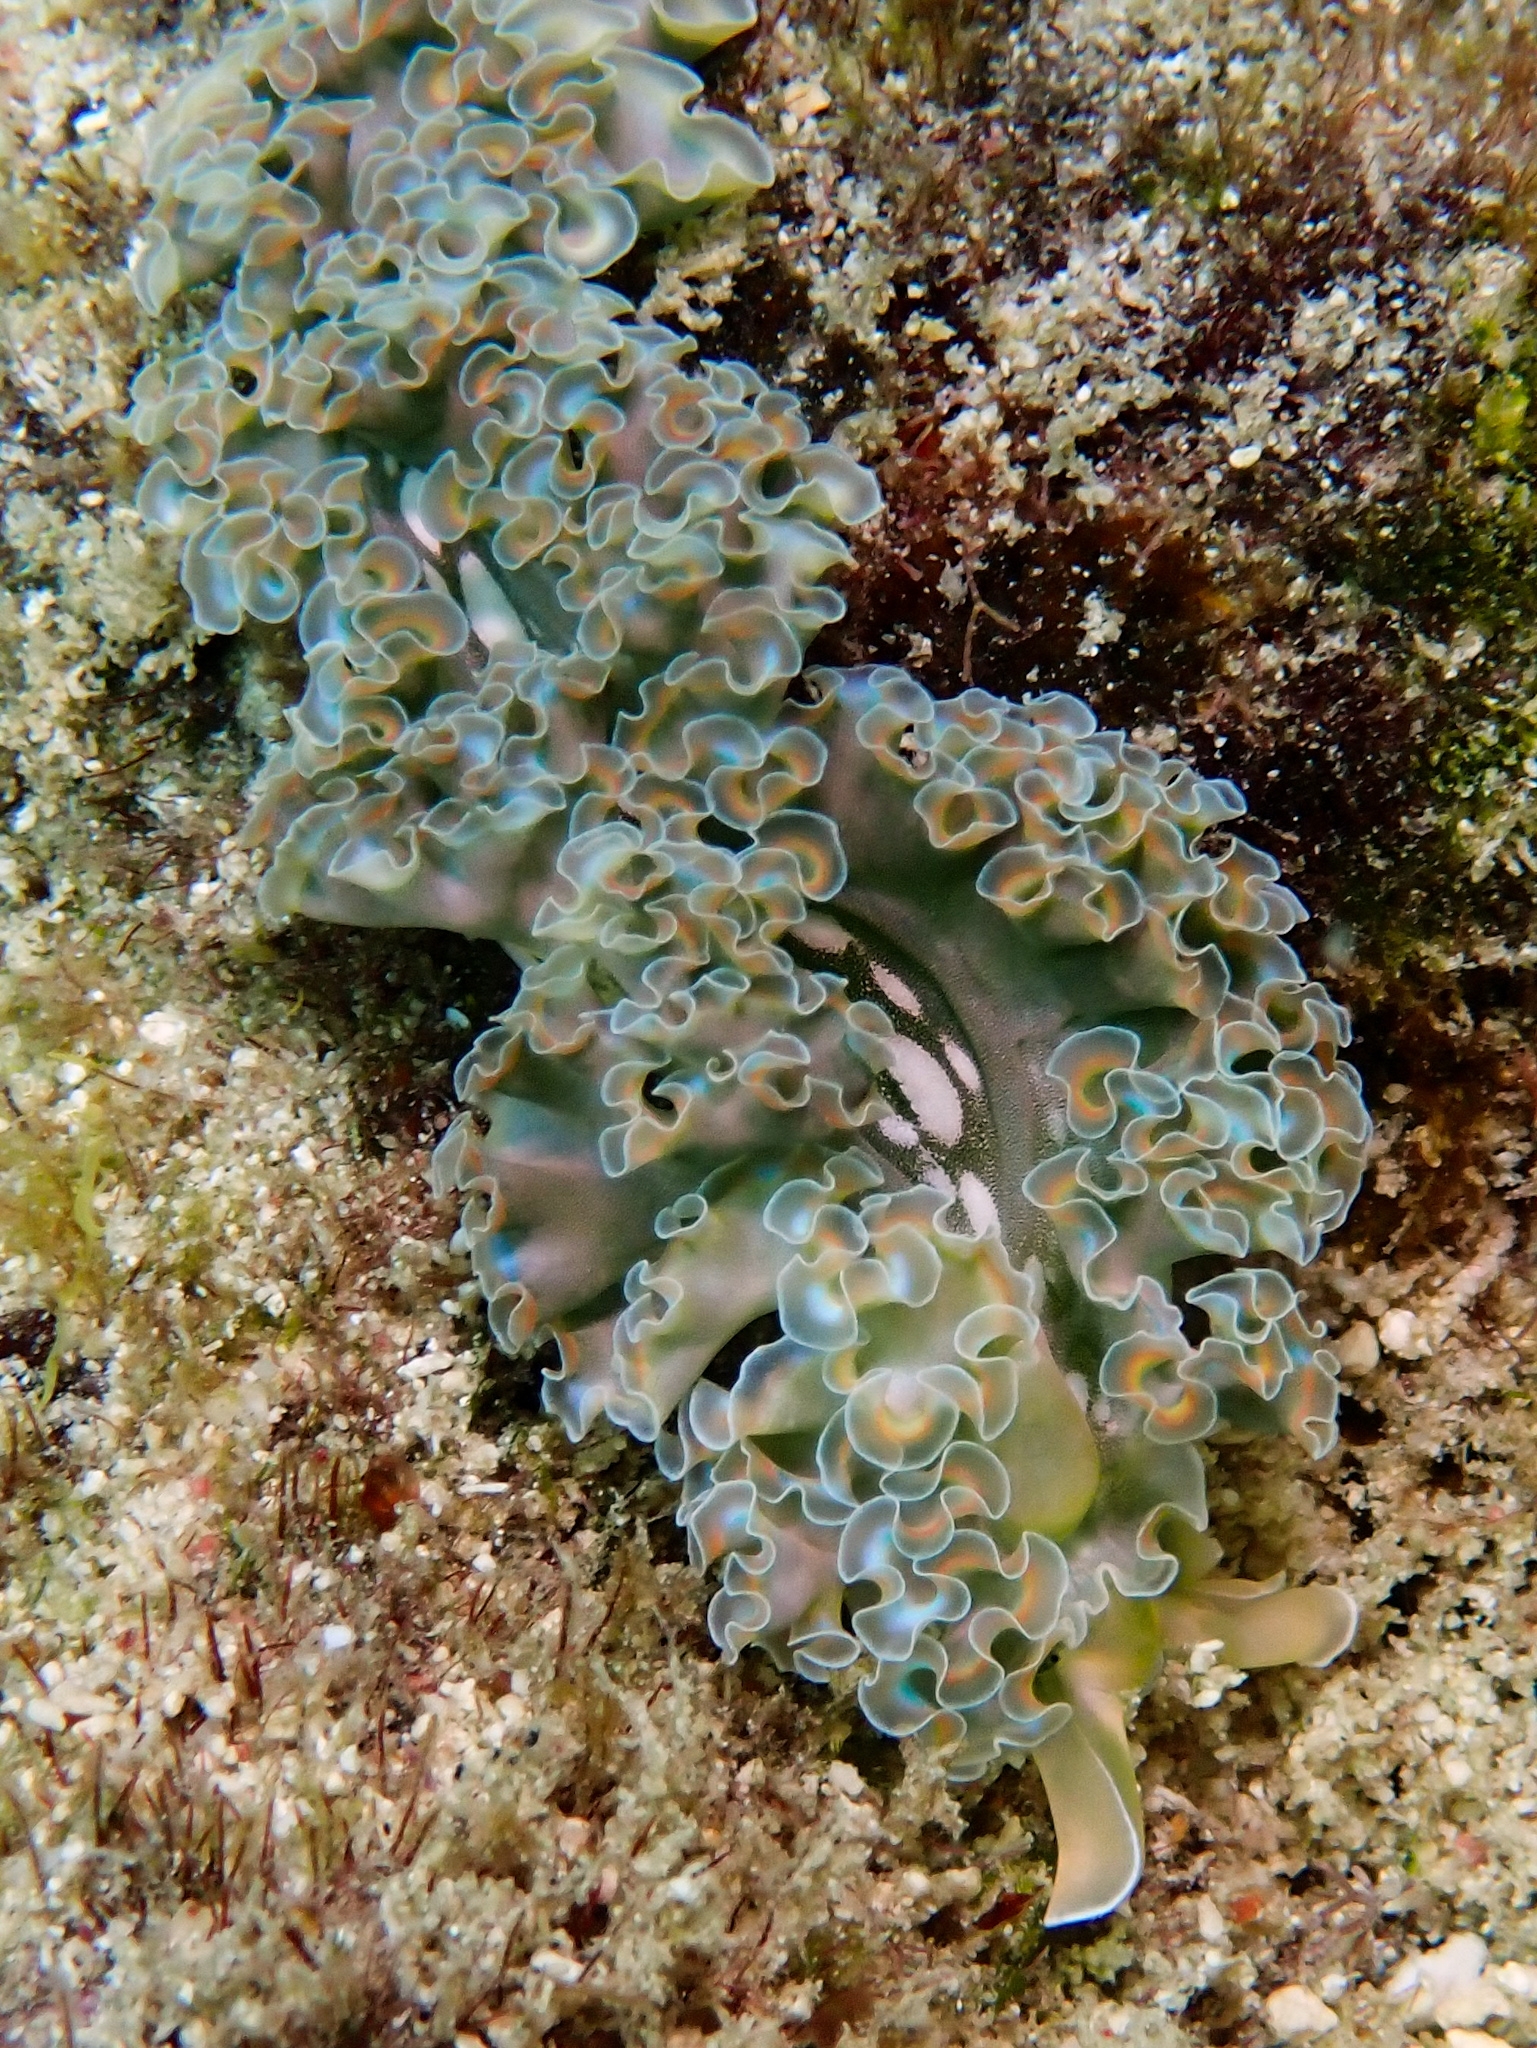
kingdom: Animalia
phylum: Mollusca
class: Gastropoda
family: Plakobranchidae
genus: Elysia
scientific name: Elysia crispata
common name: Lettuce slug
